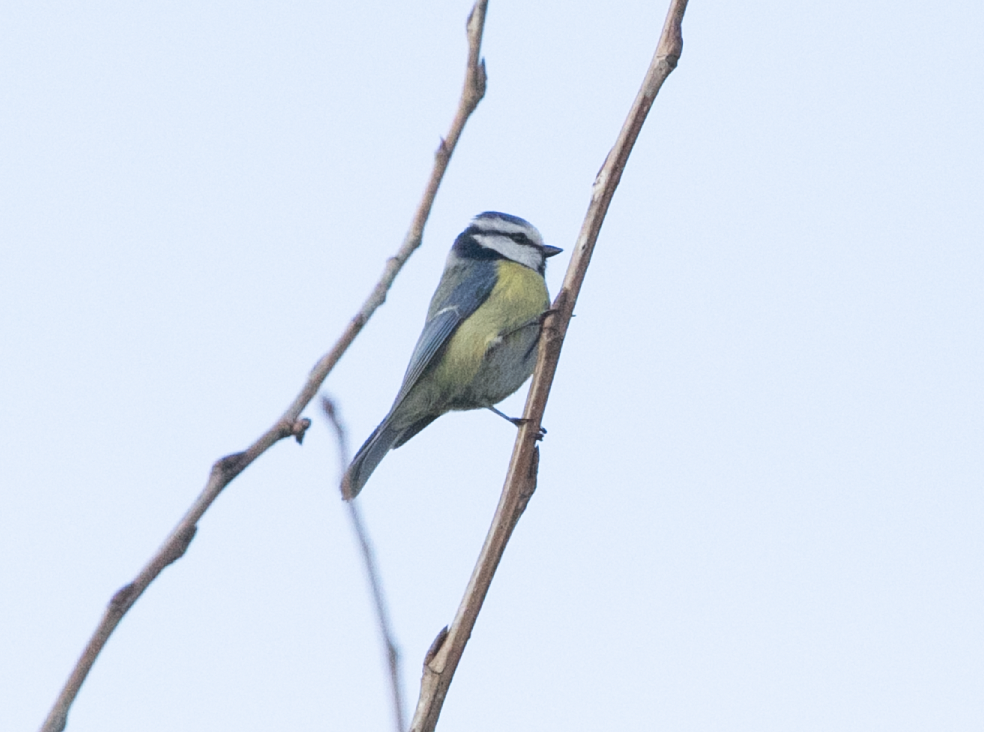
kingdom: Animalia
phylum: Chordata
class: Aves
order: Passeriformes
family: Paridae
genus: Cyanistes
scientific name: Cyanistes caeruleus
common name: Eurasian blue tit
